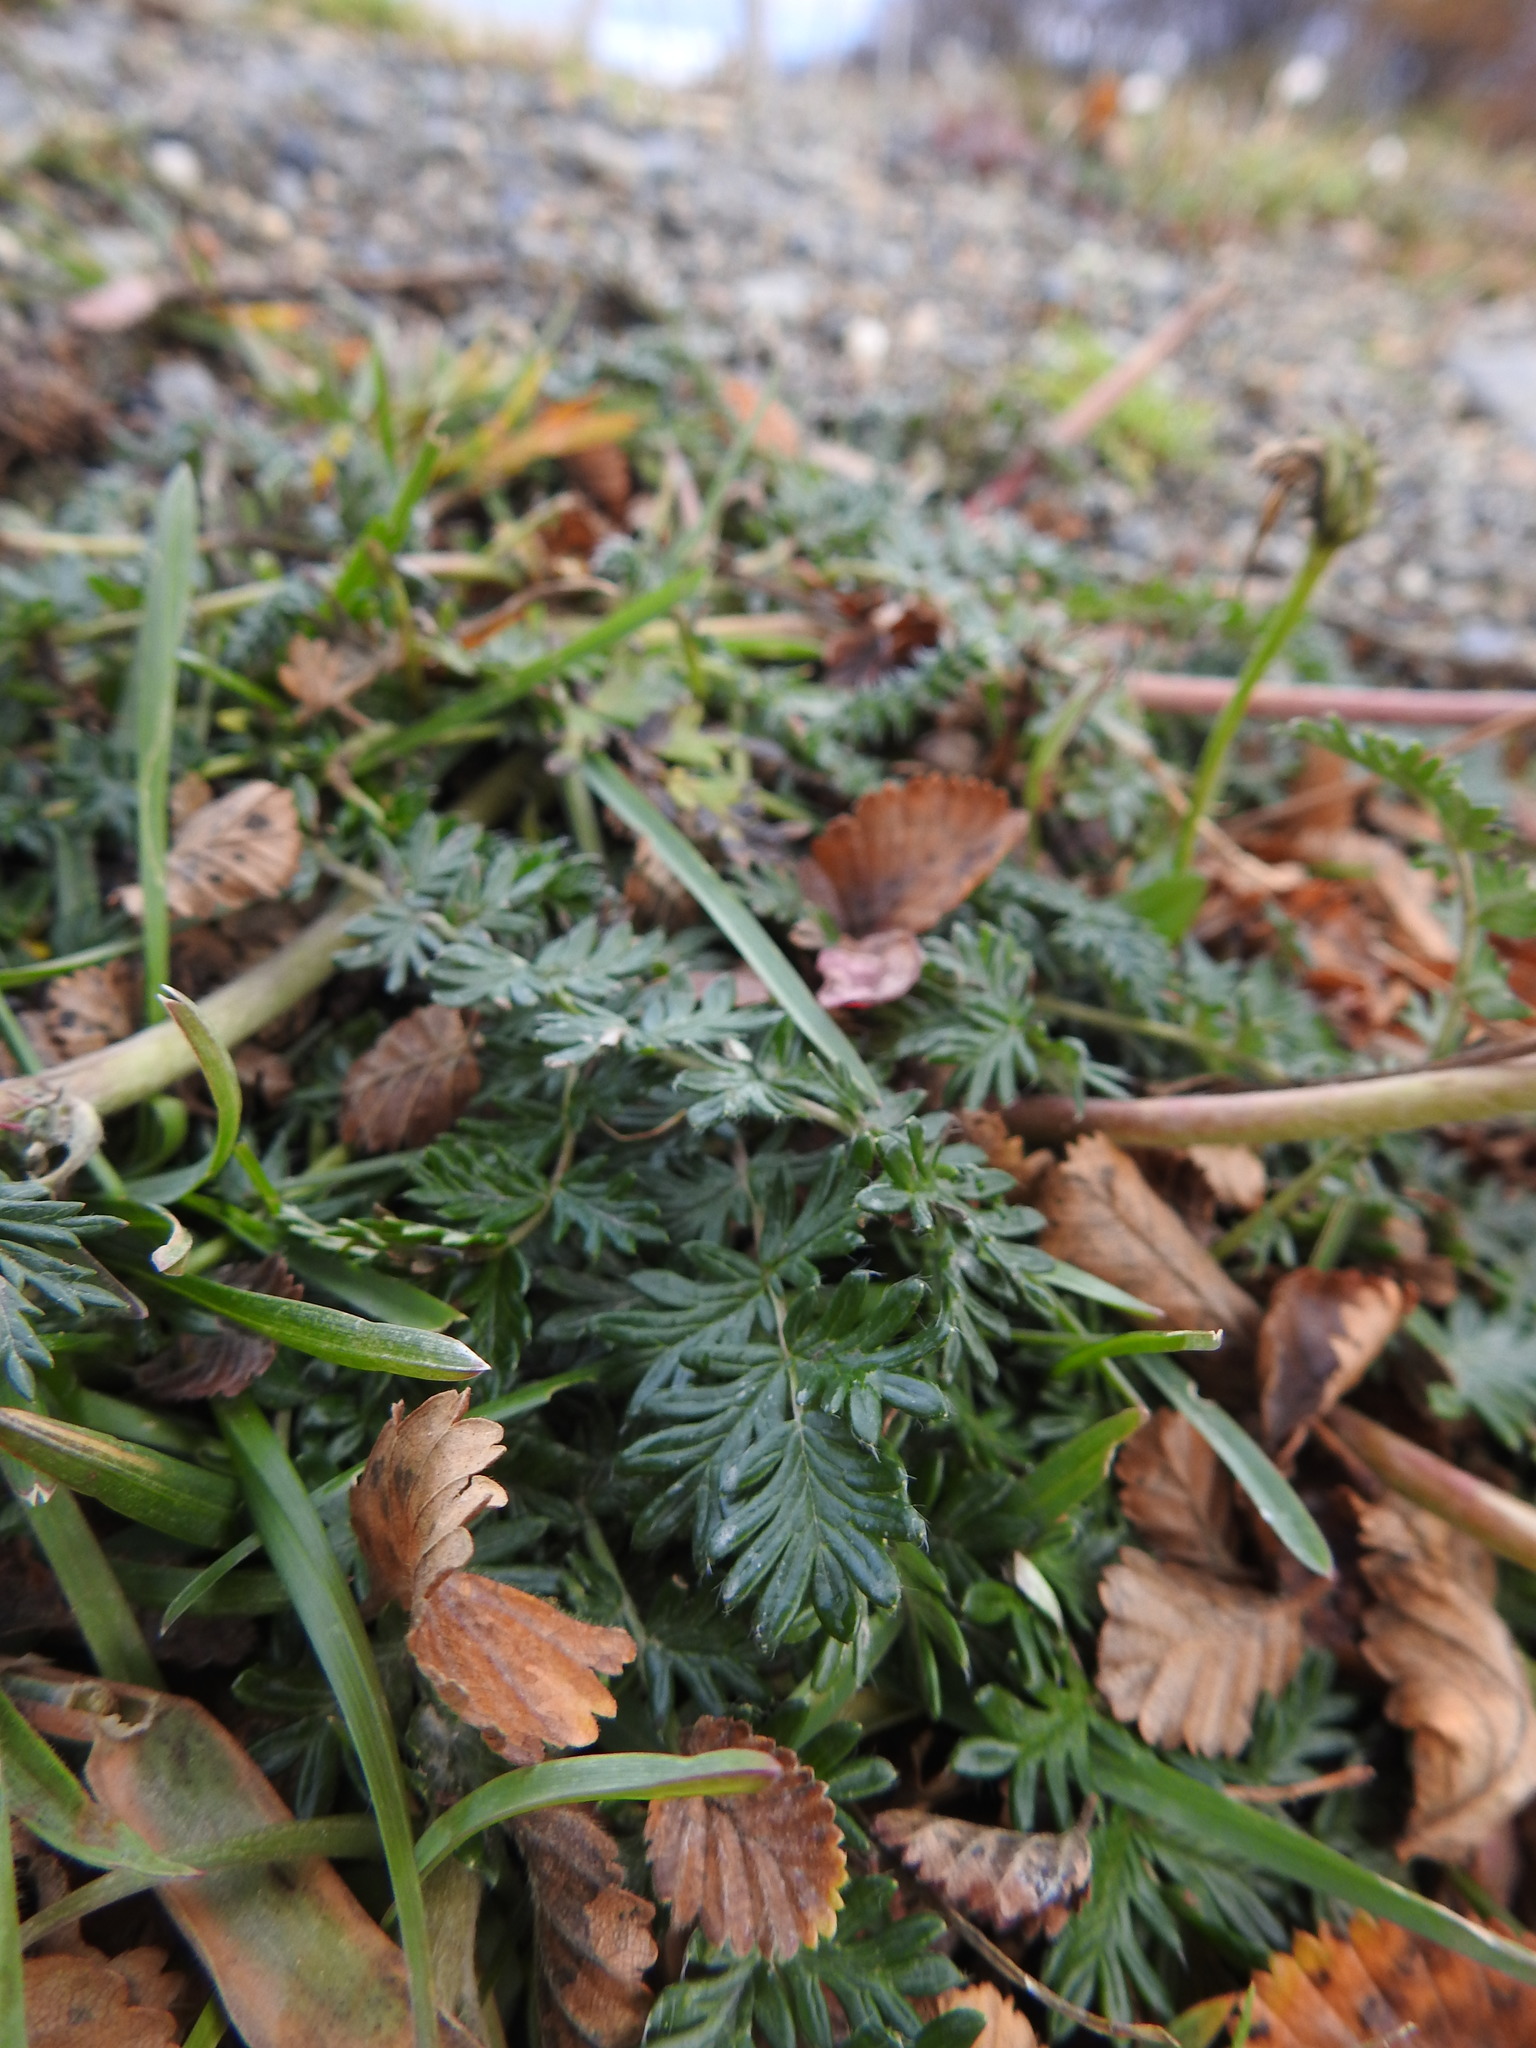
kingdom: Plantae
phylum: Tracheophyta
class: Magnoliopsida
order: Rosales
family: Rosaceae
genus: Acaena
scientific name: Acaena pinnatifida
